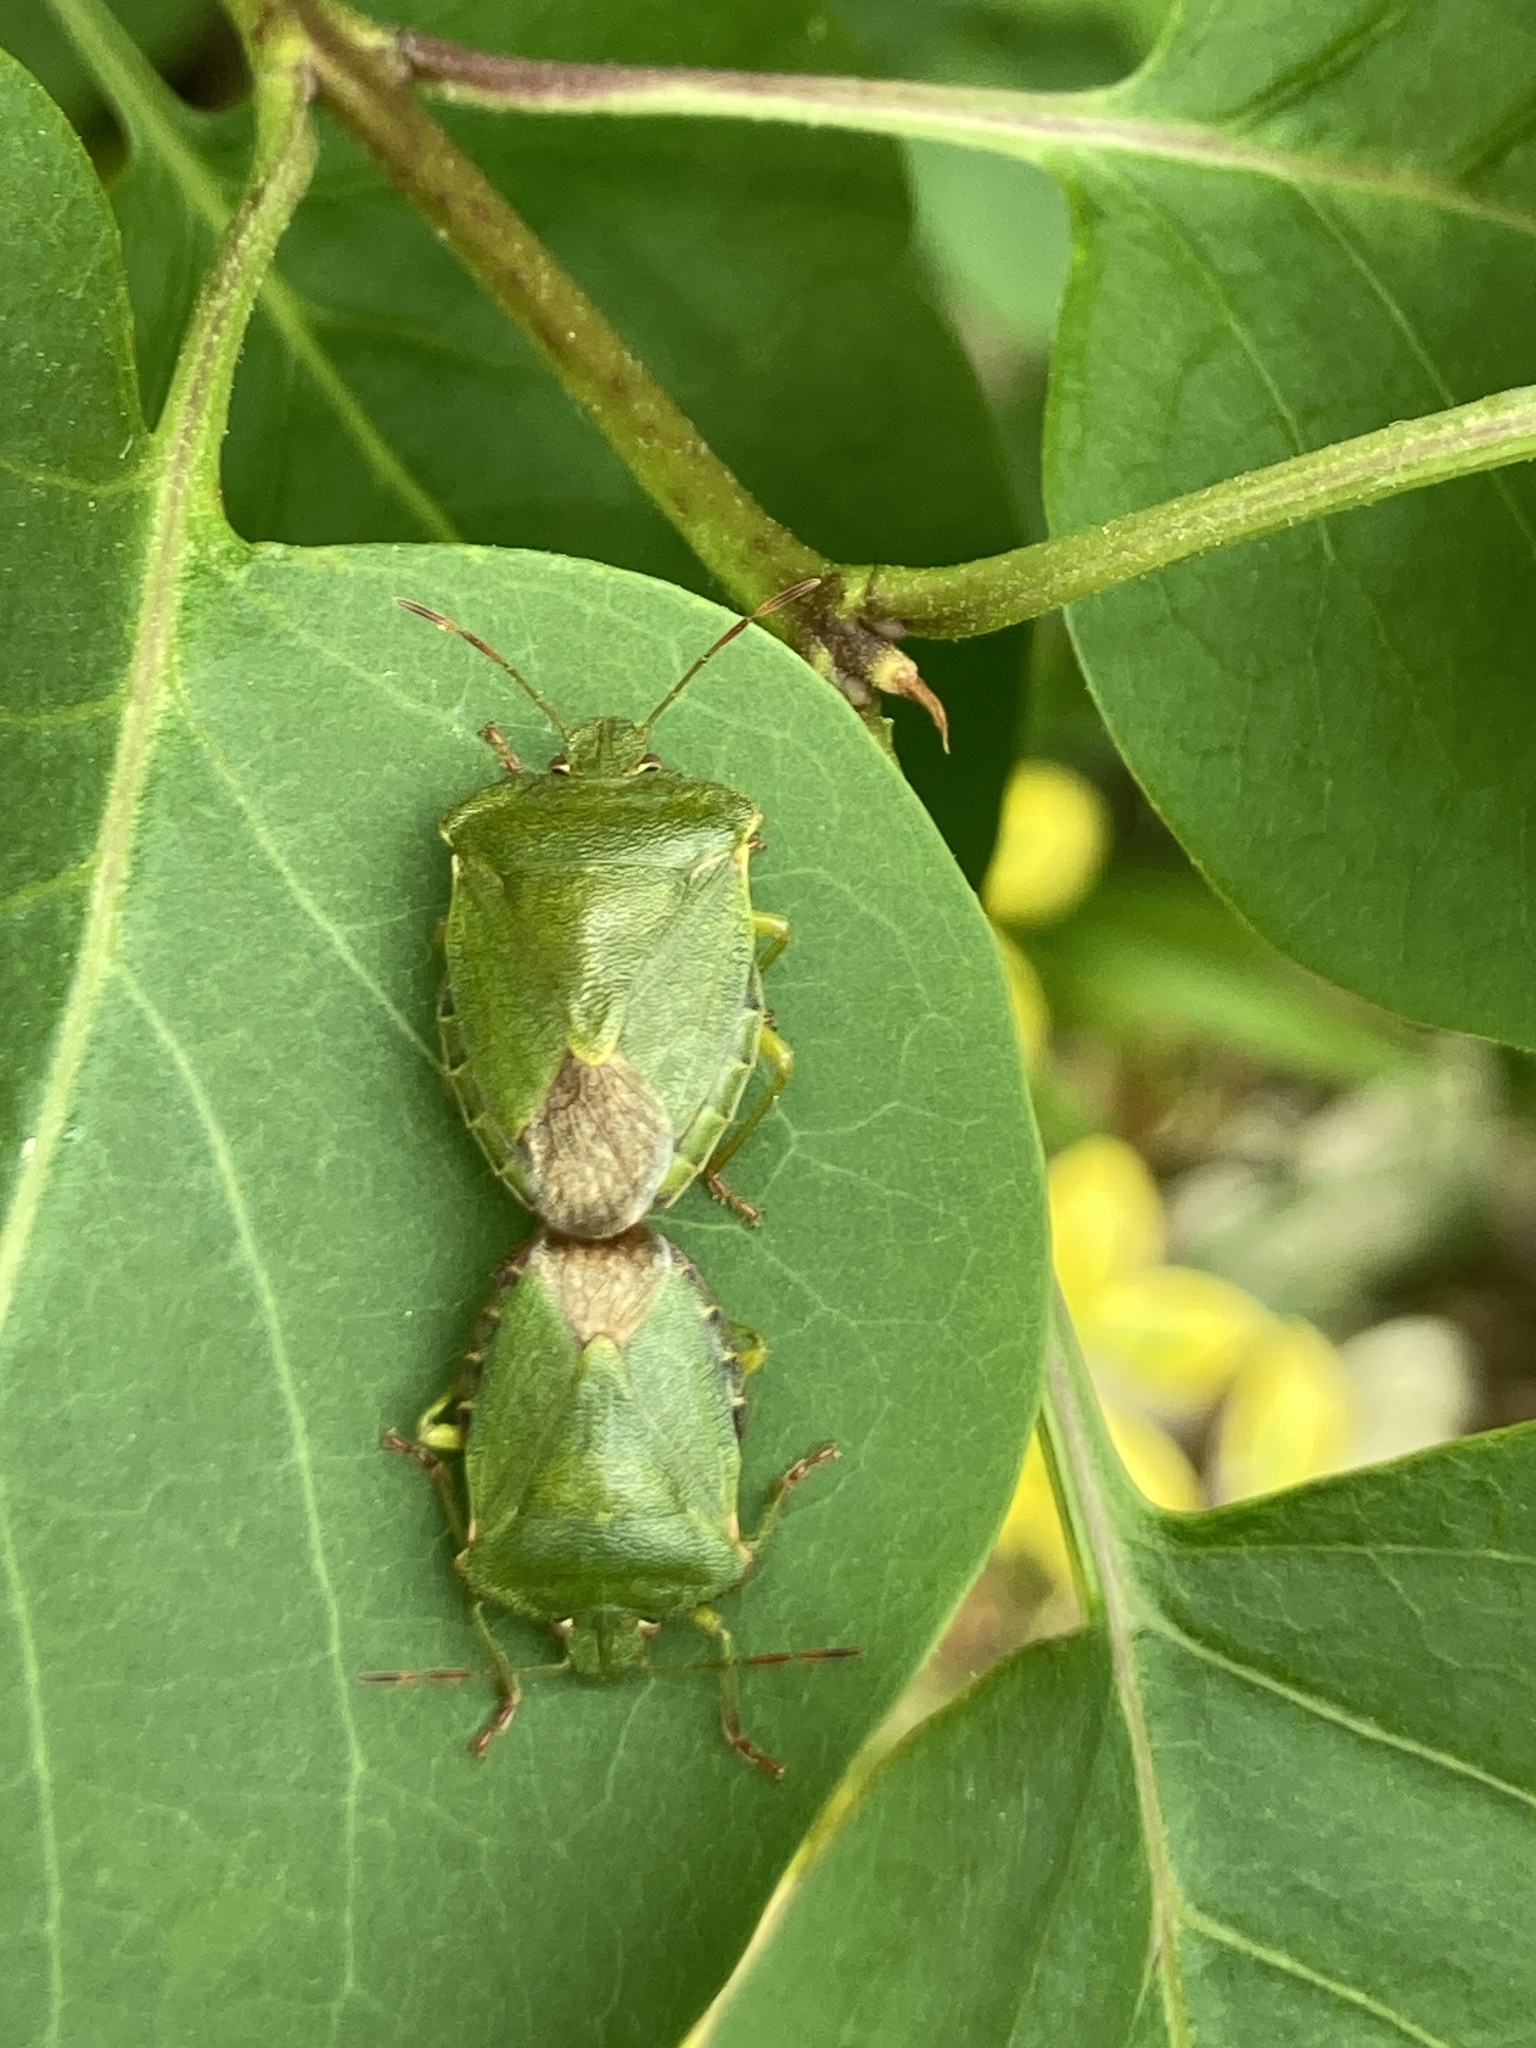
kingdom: Animalia
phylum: Arthropoda
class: Insecta
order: Hemiptera
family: Pentatomidae
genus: Palomena
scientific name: Palomena prasina
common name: Green shieldbug
